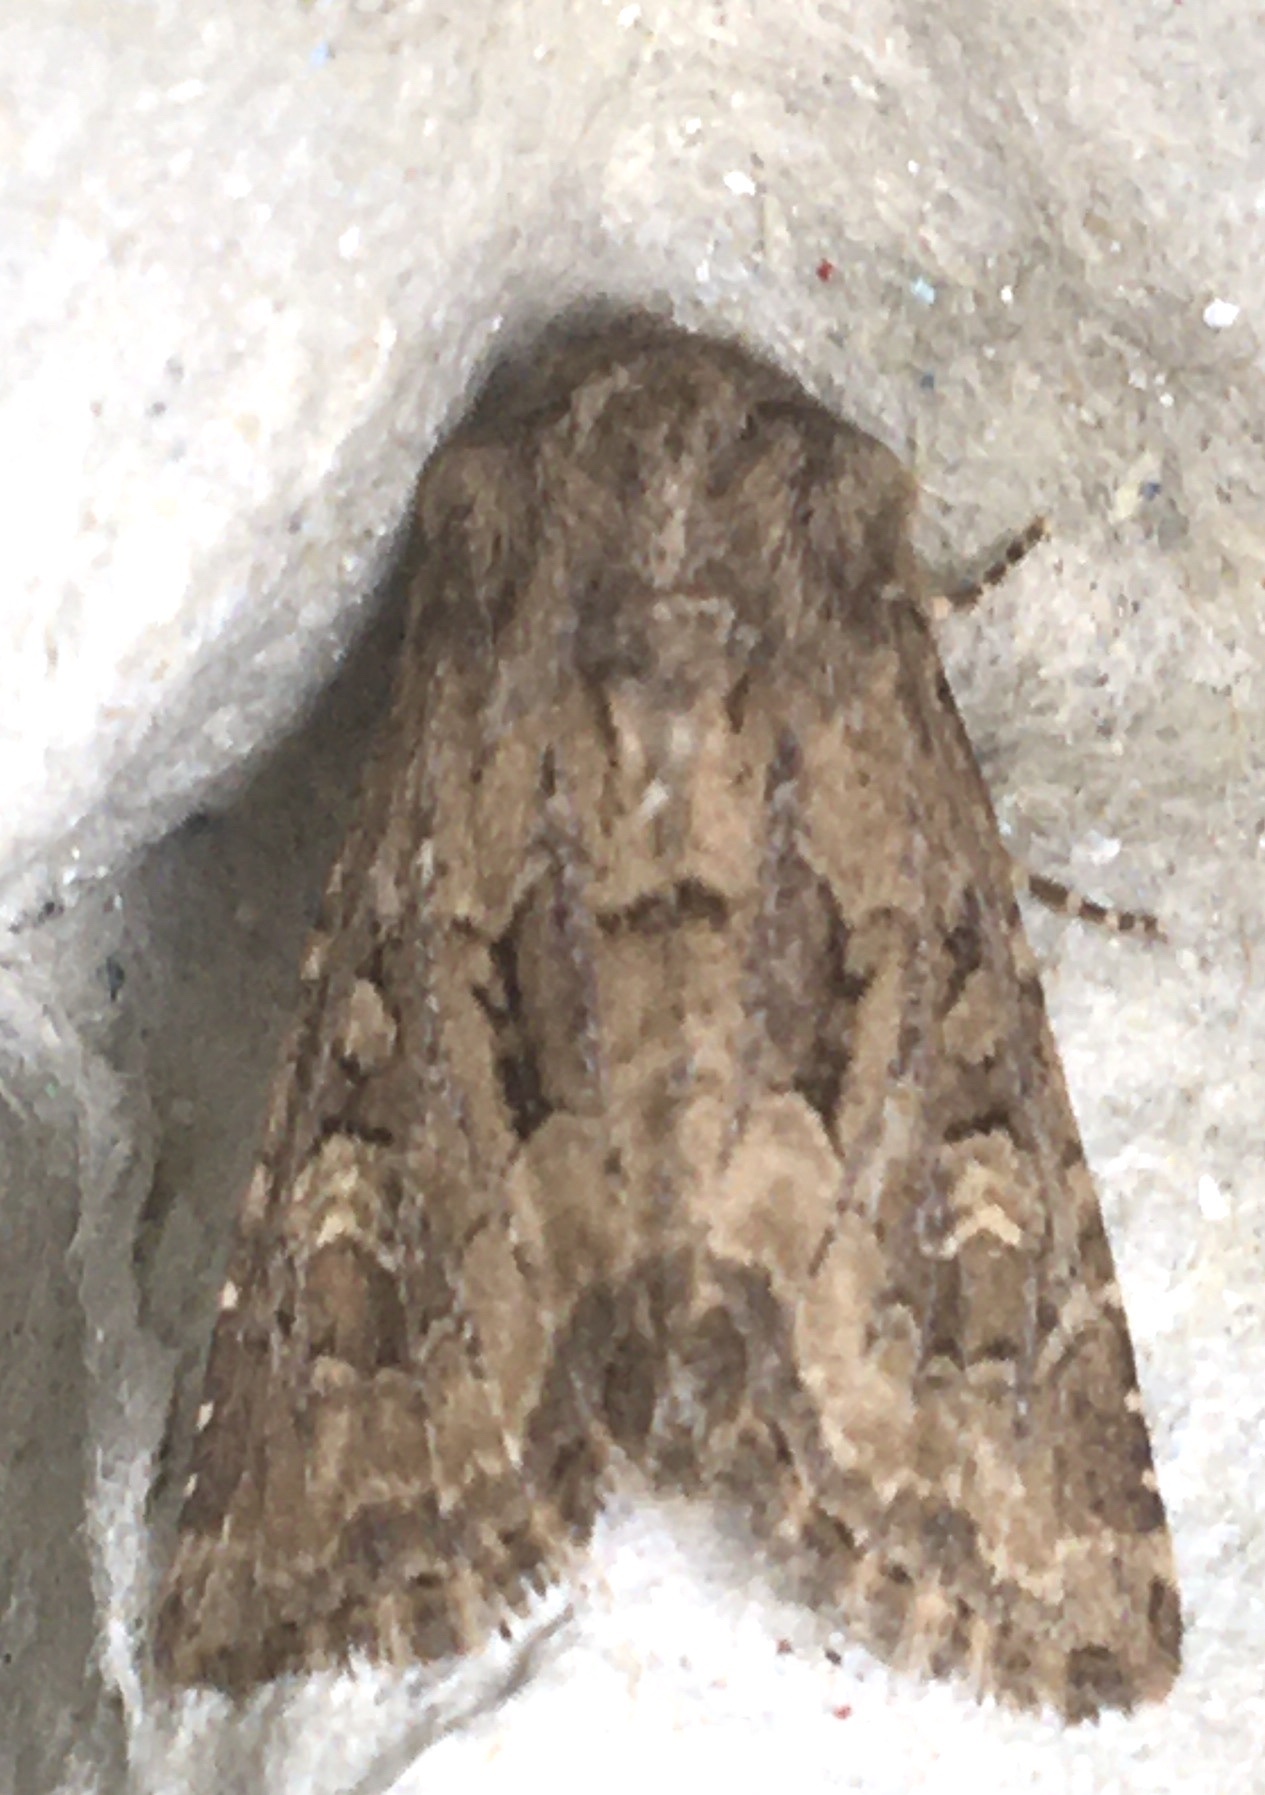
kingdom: Animalia
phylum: Arthropoda
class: Insecta
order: Lepidoptera
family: Noctuidae
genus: Luperina
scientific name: Luperina testacea
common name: Flounced rustic
